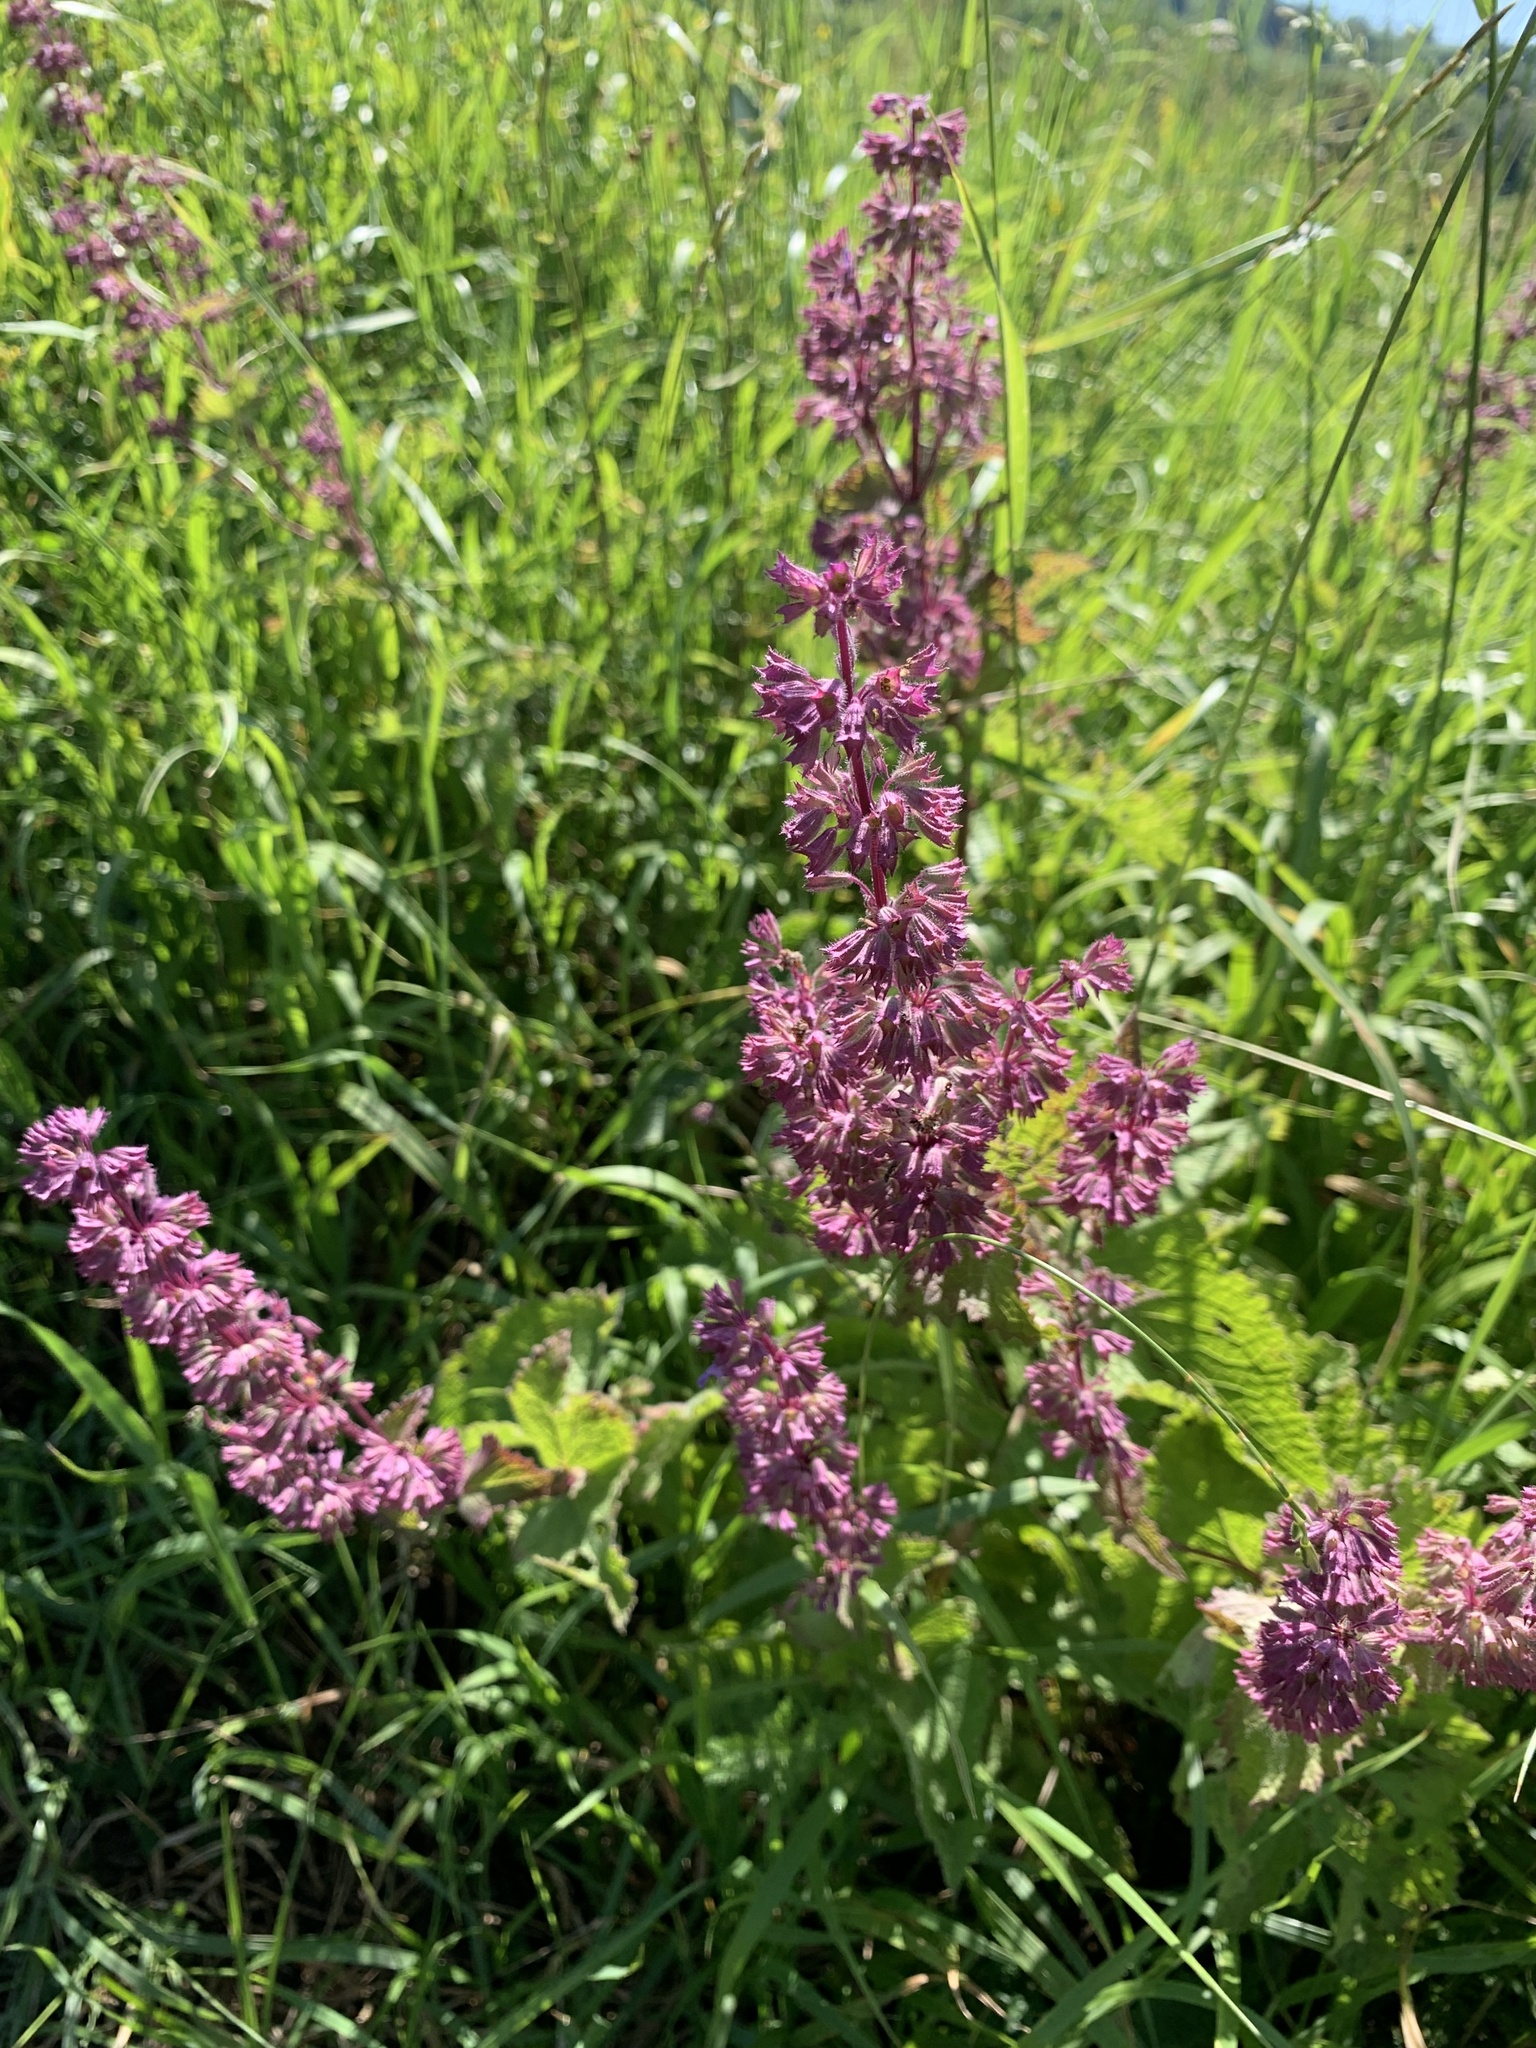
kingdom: Plantae
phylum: Tracheophyta
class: Magnoliopsida
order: Lamiales
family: Lamiaceae
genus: Salvia
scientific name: Salvia verticillata
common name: Whorled clary
